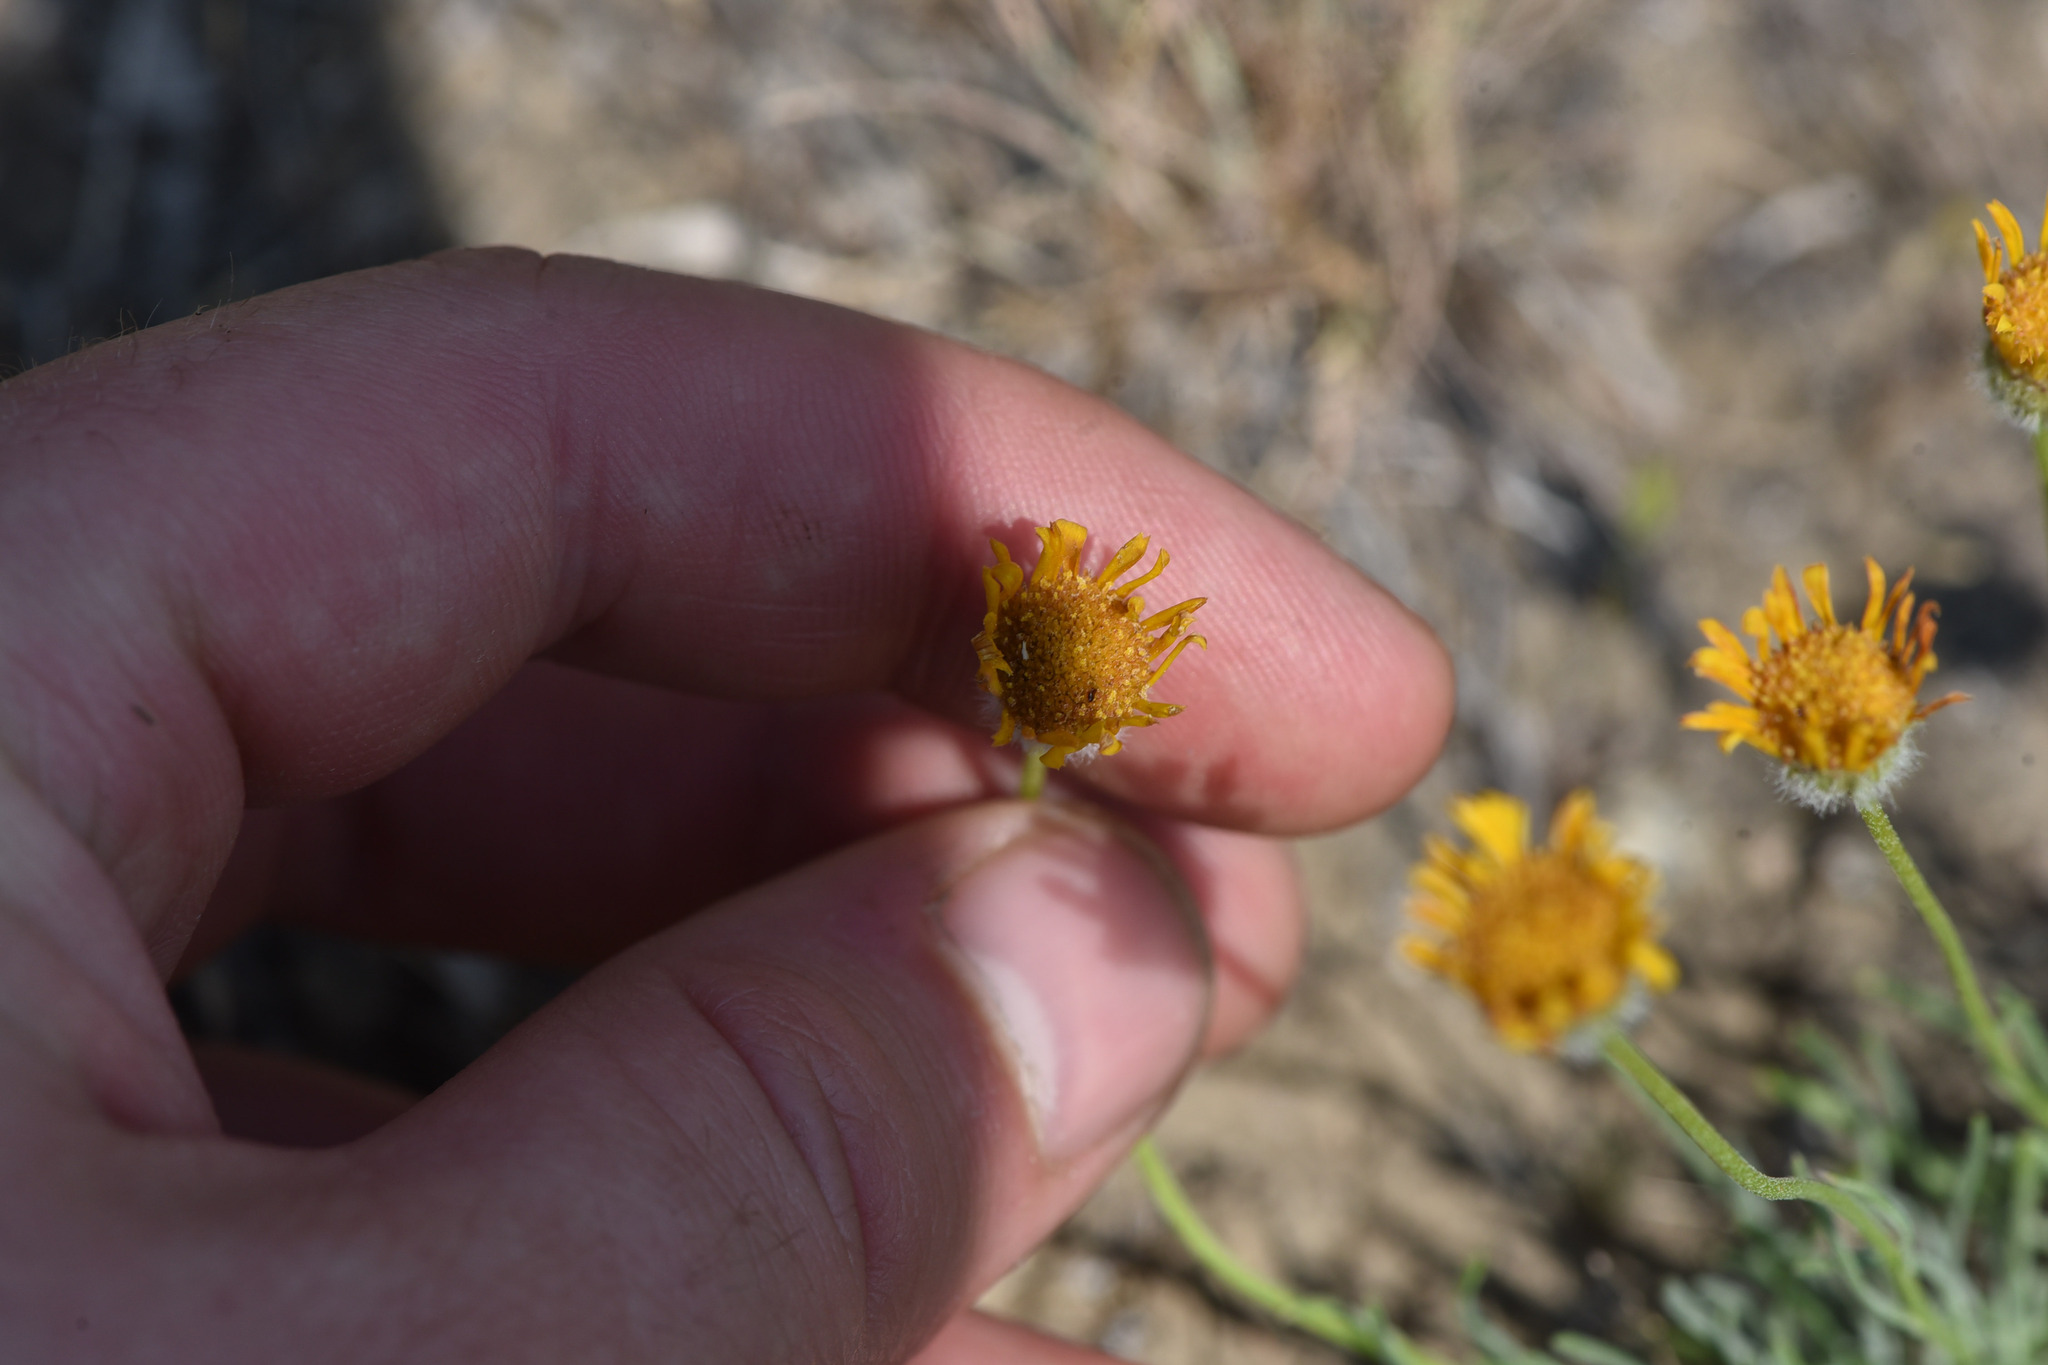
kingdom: Plantae
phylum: Tracheophyta
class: Magnoliopsida
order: Asterales
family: Asteraceae
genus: Erigeron
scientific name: Erigeron linearis
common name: Desert yellow fleabane
